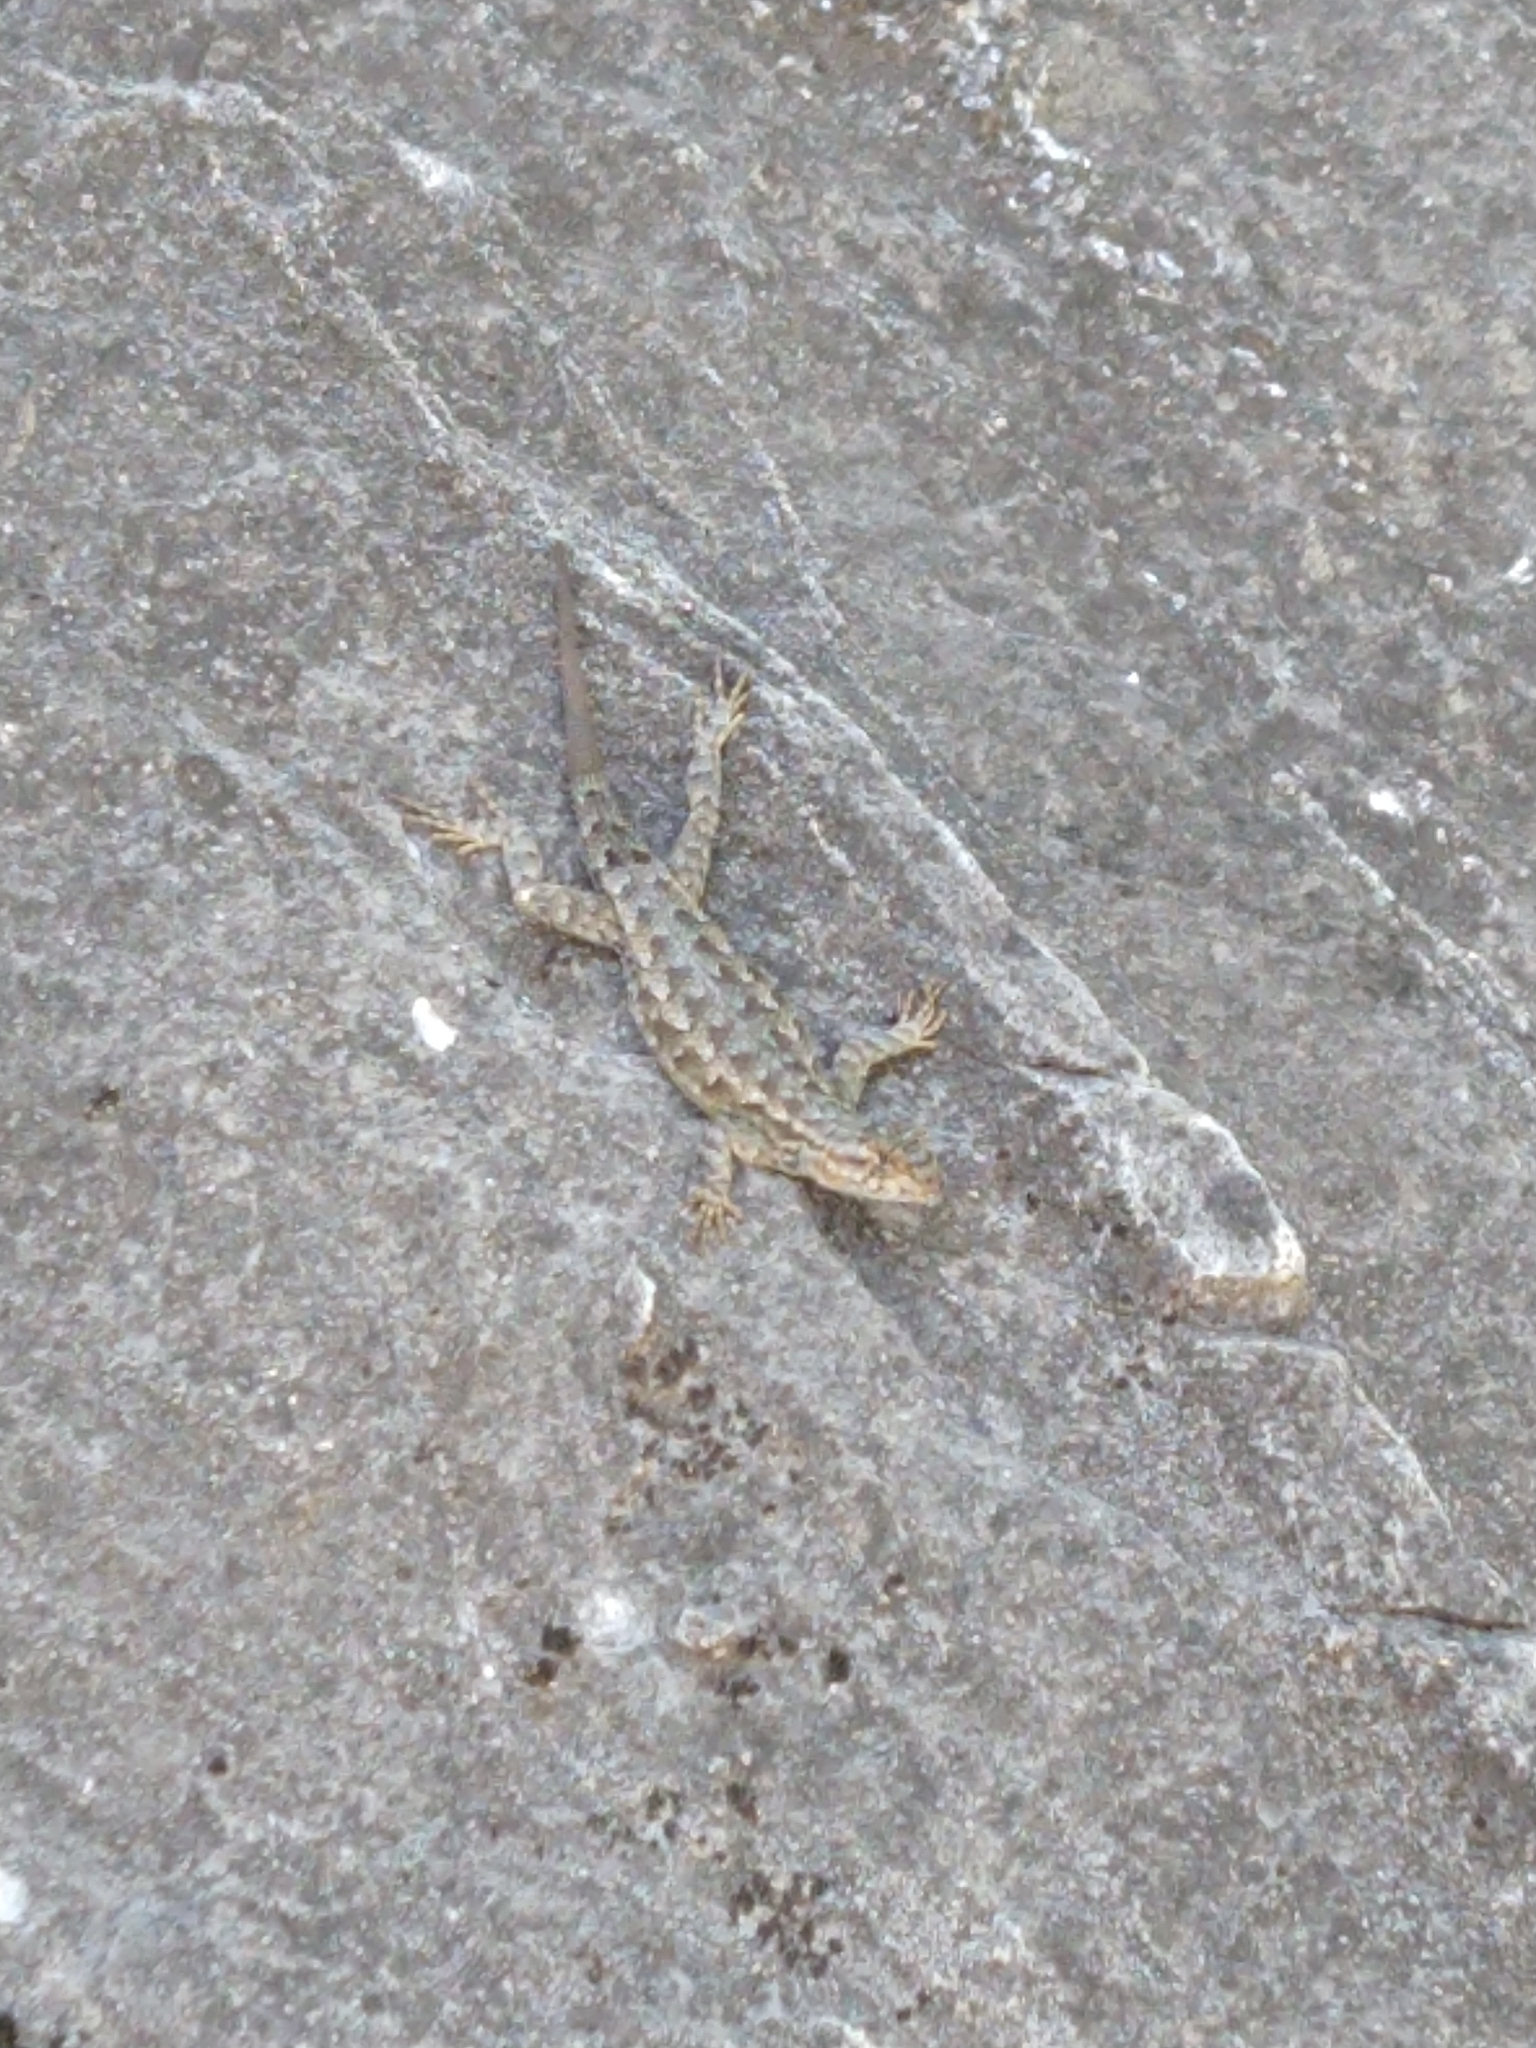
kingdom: Animalia
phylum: Chordata
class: Squamata
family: Phrynosomatidae
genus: Sceloporus
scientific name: Sceloporus occidentalis
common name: Western fence lizard
